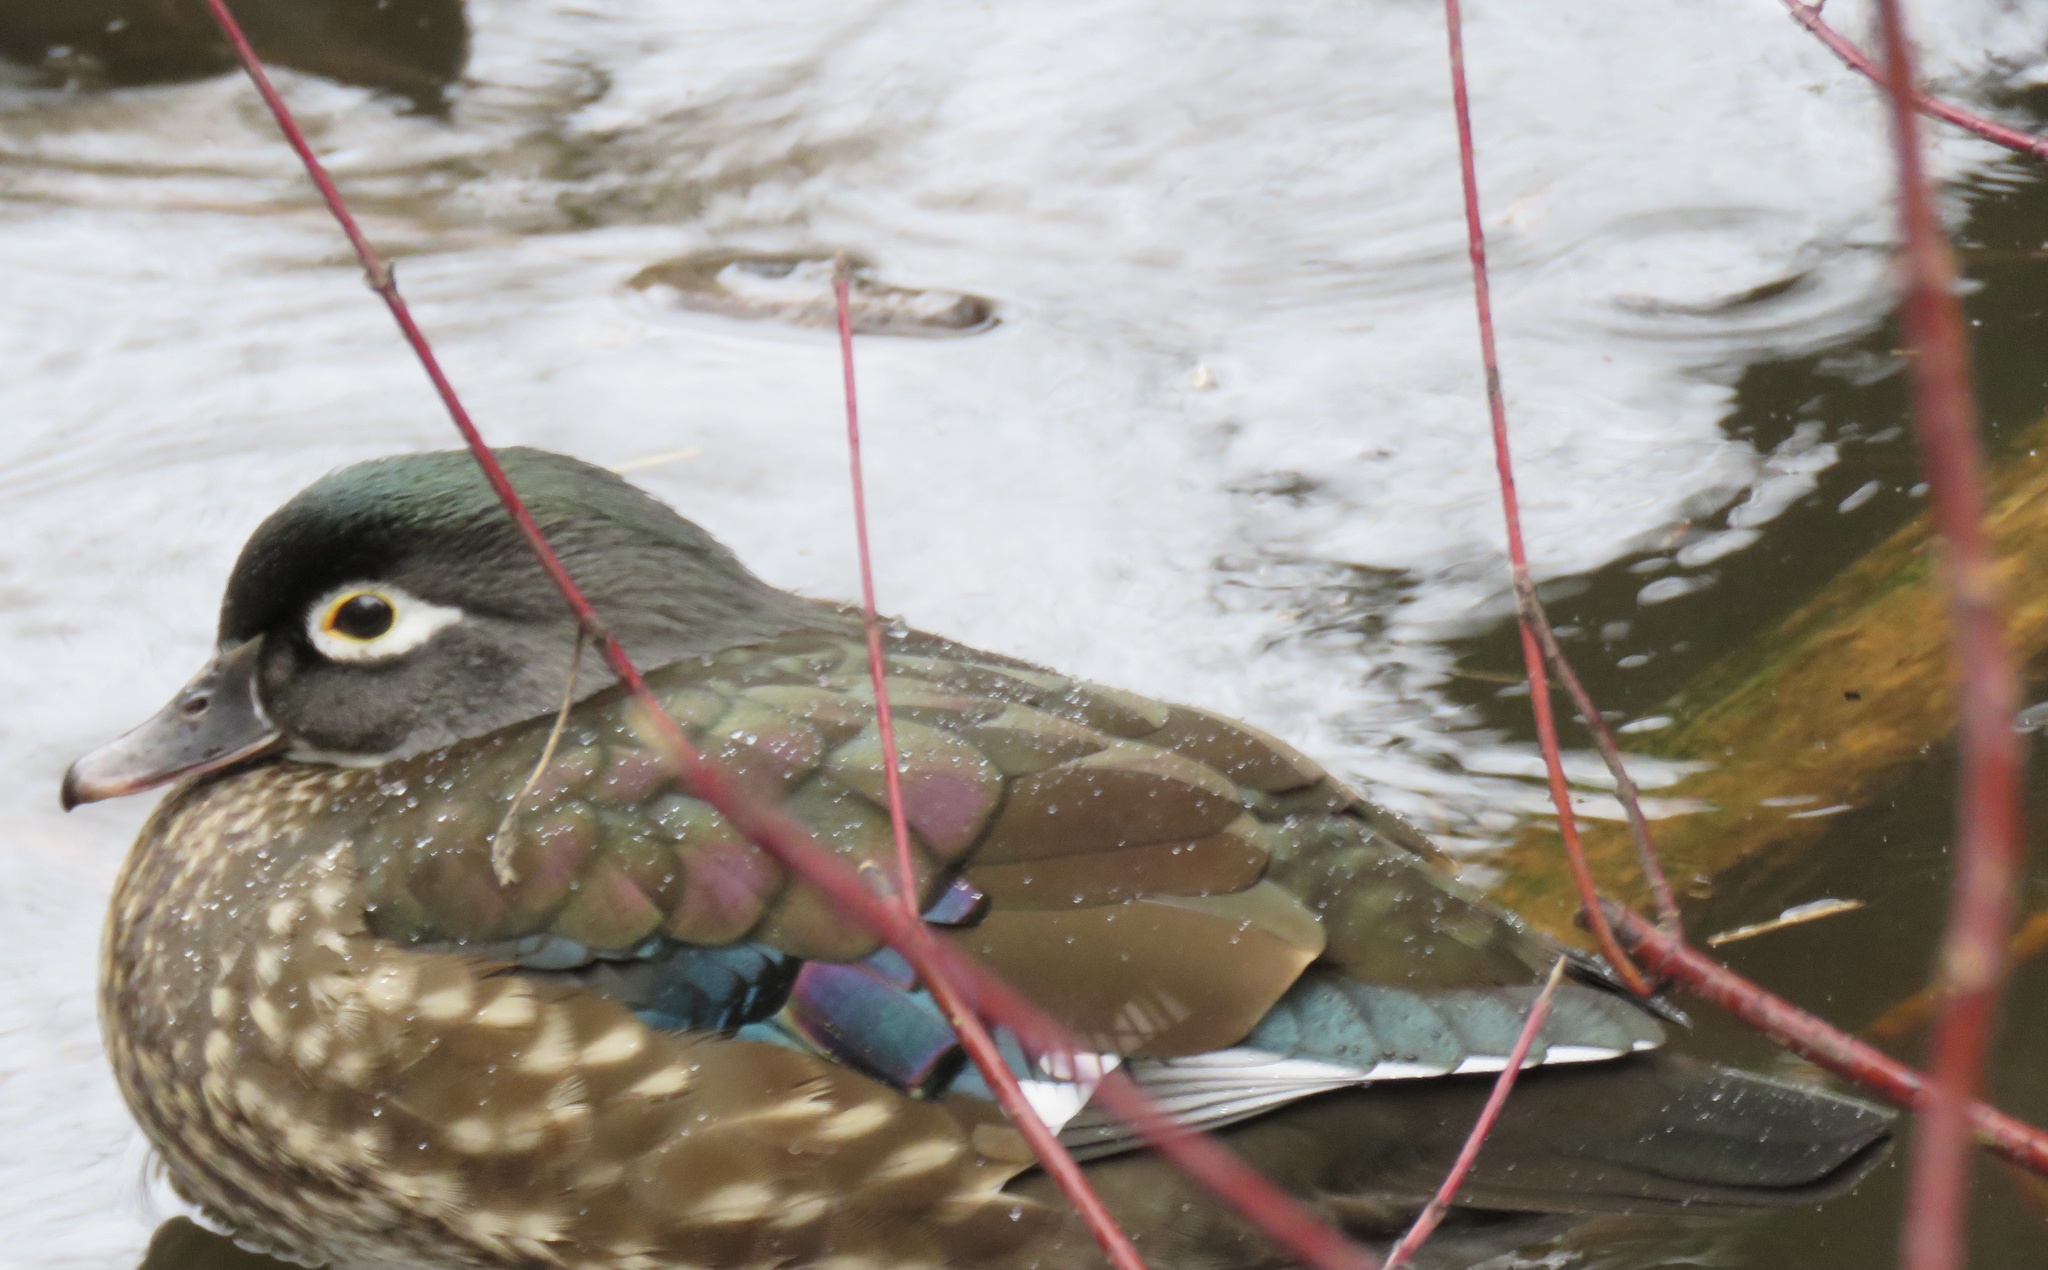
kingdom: Animalia
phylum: Chordata
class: Aves
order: Anseriformes
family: Anatidae
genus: Aix
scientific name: Aix sponsa
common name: Wood duck
